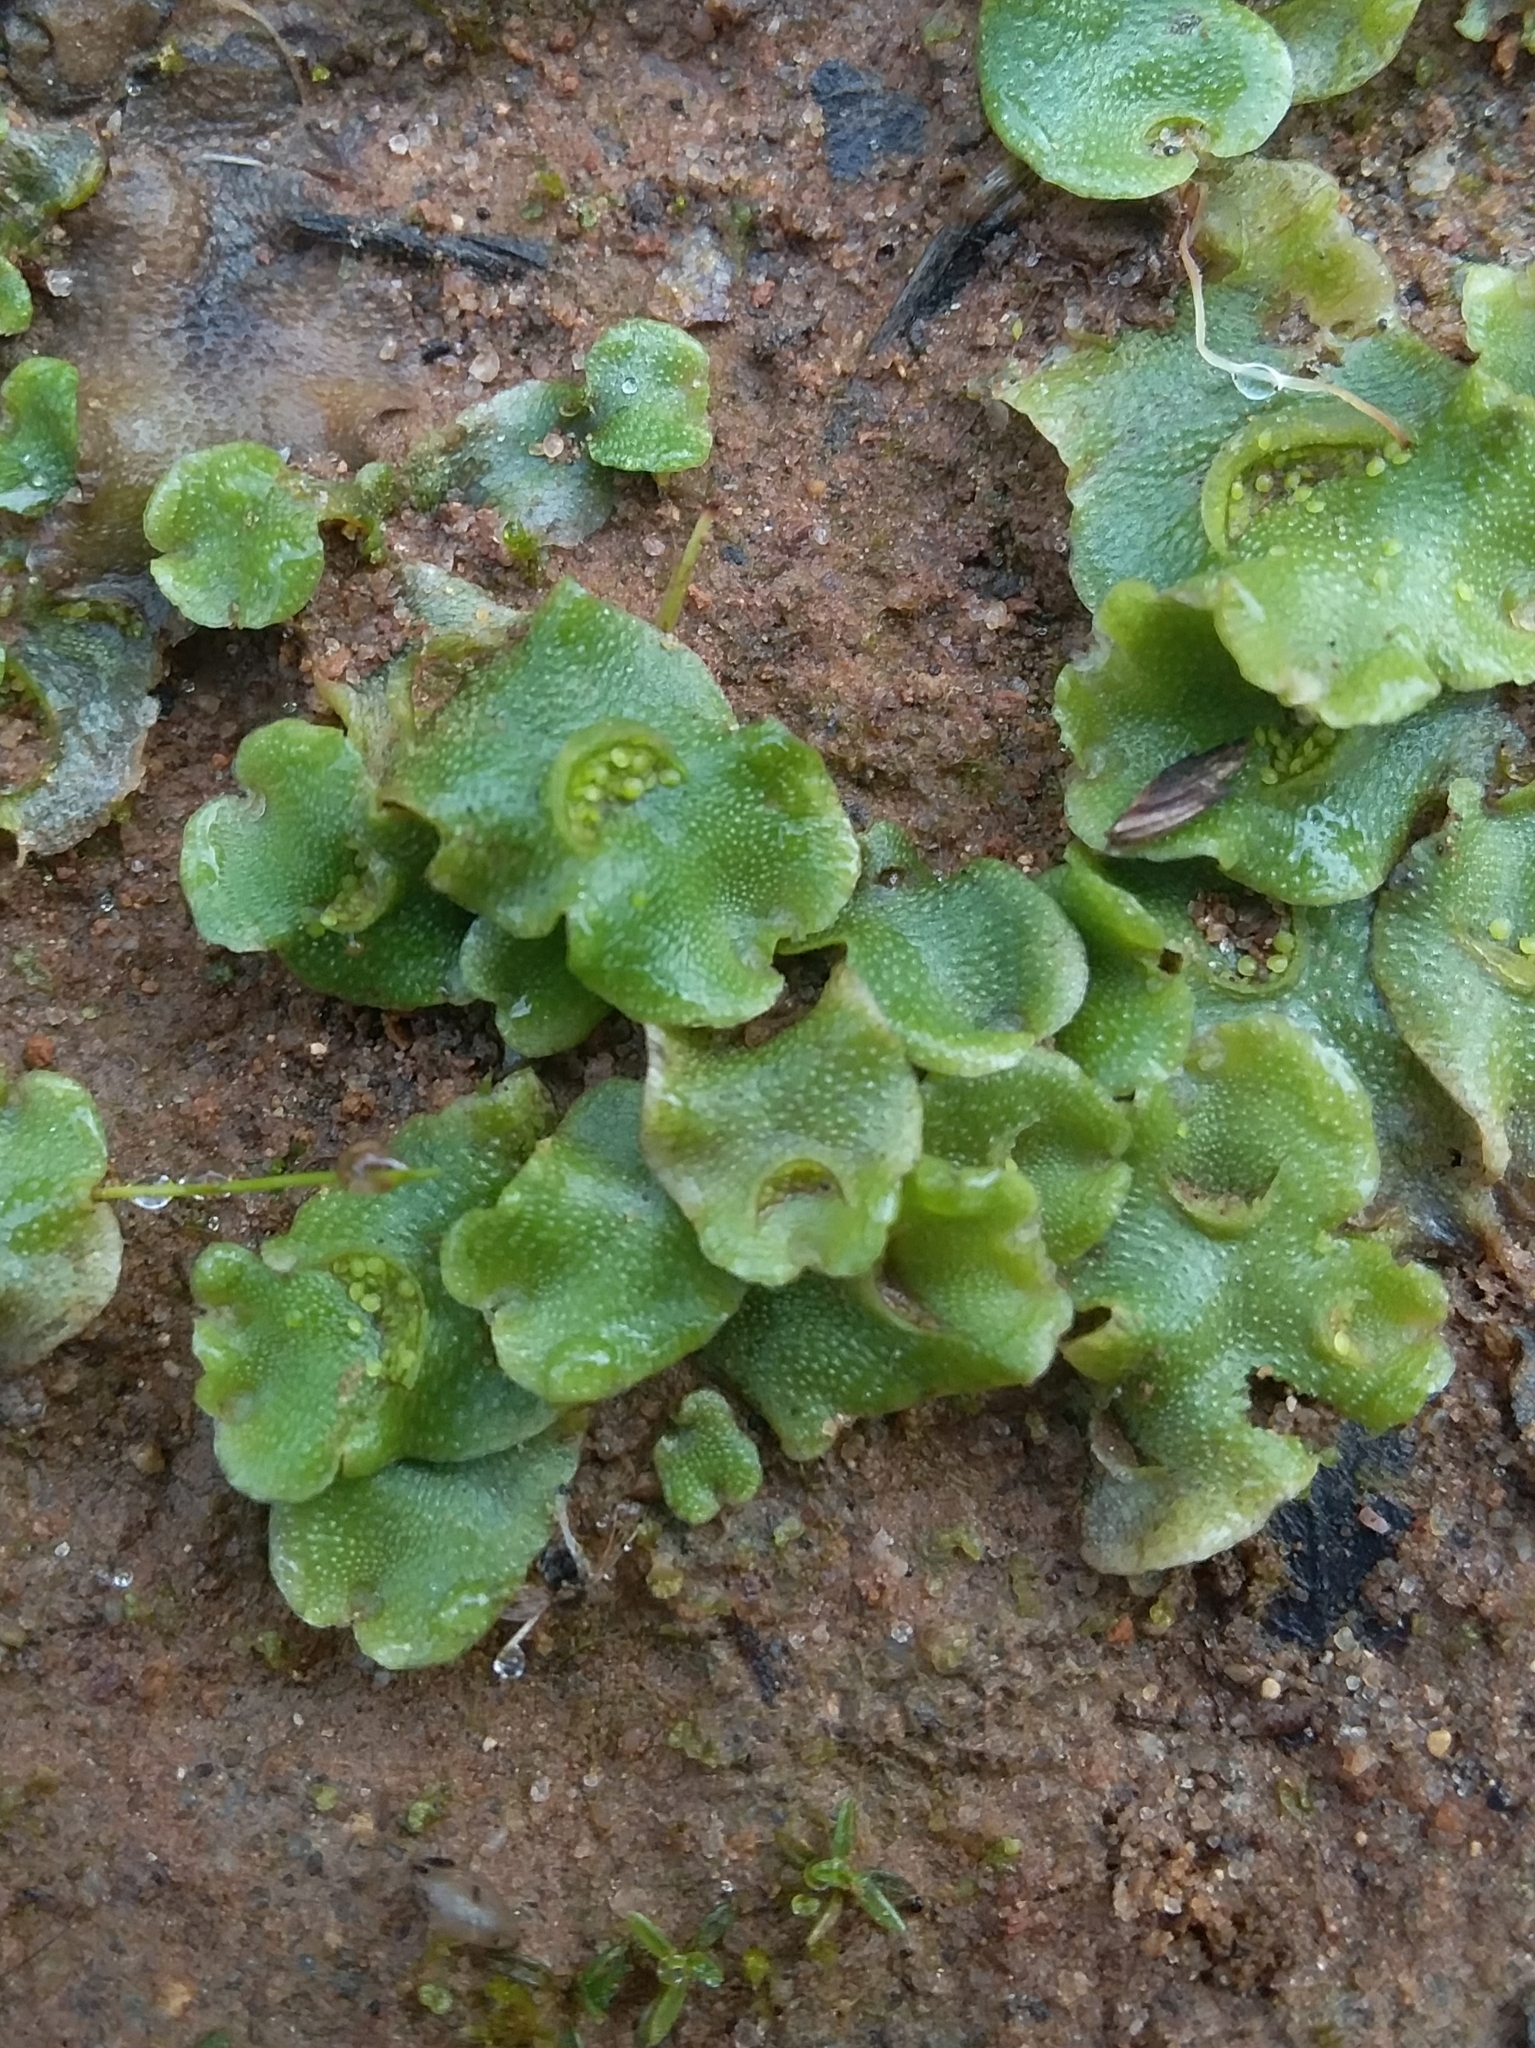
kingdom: Plantae
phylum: Marchantiophyta
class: Marchantiopsida
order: Lunulariales
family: Lunulariaceae
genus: Lunularia
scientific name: Lunularia cruciata
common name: Crescent-cup liverwort
